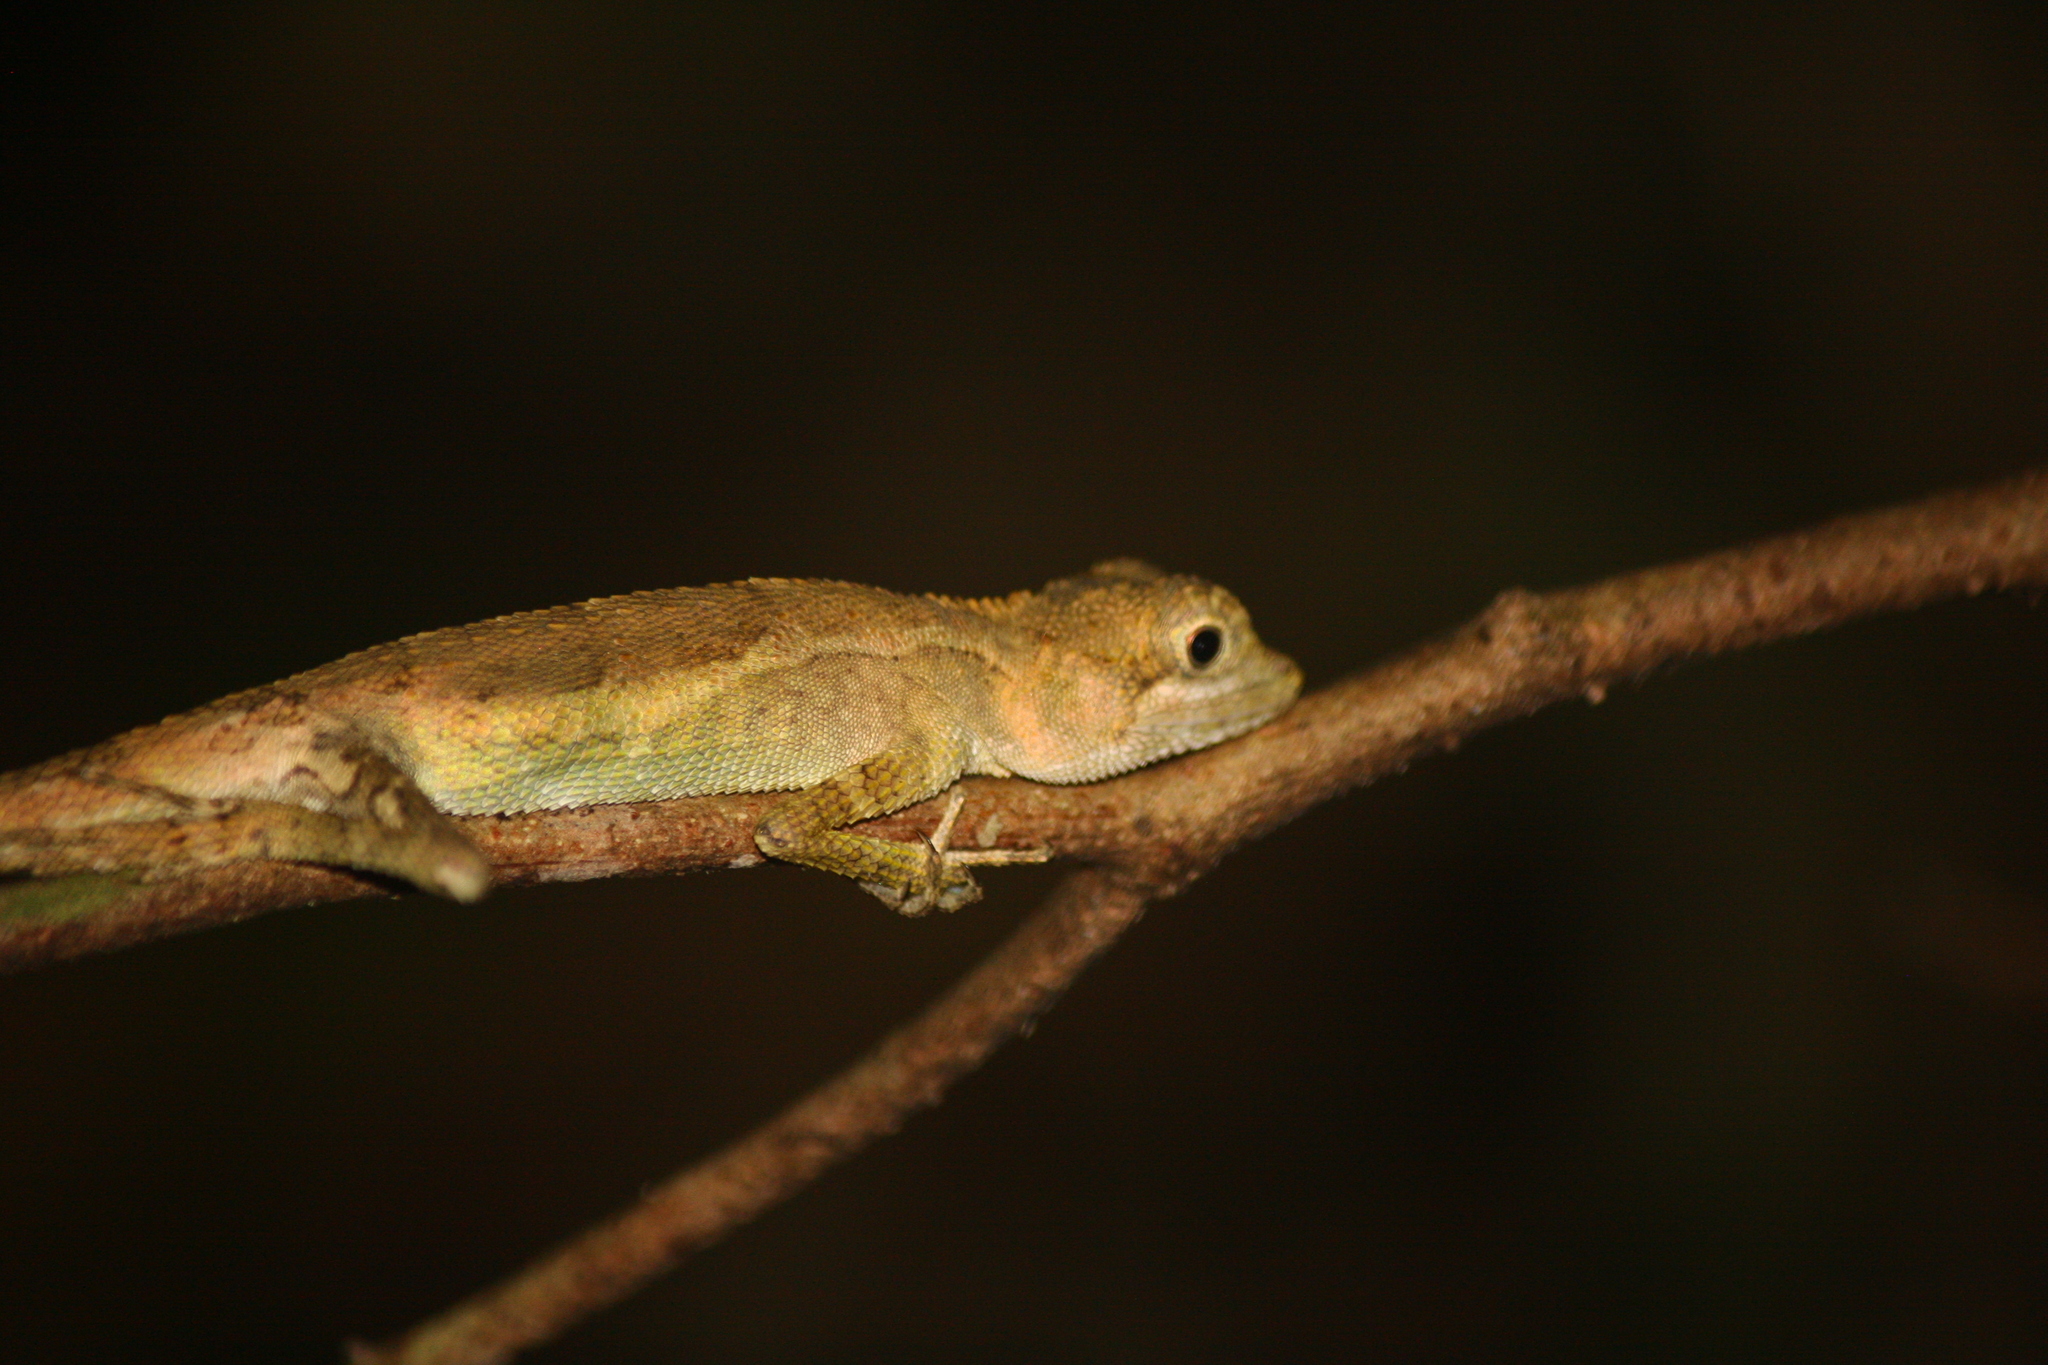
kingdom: Fungi
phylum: Basidiomycota
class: Agaricomycetes
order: Boletales
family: Diplocystidiaceae
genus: Diploderma
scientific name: Diploderma polygonatum
